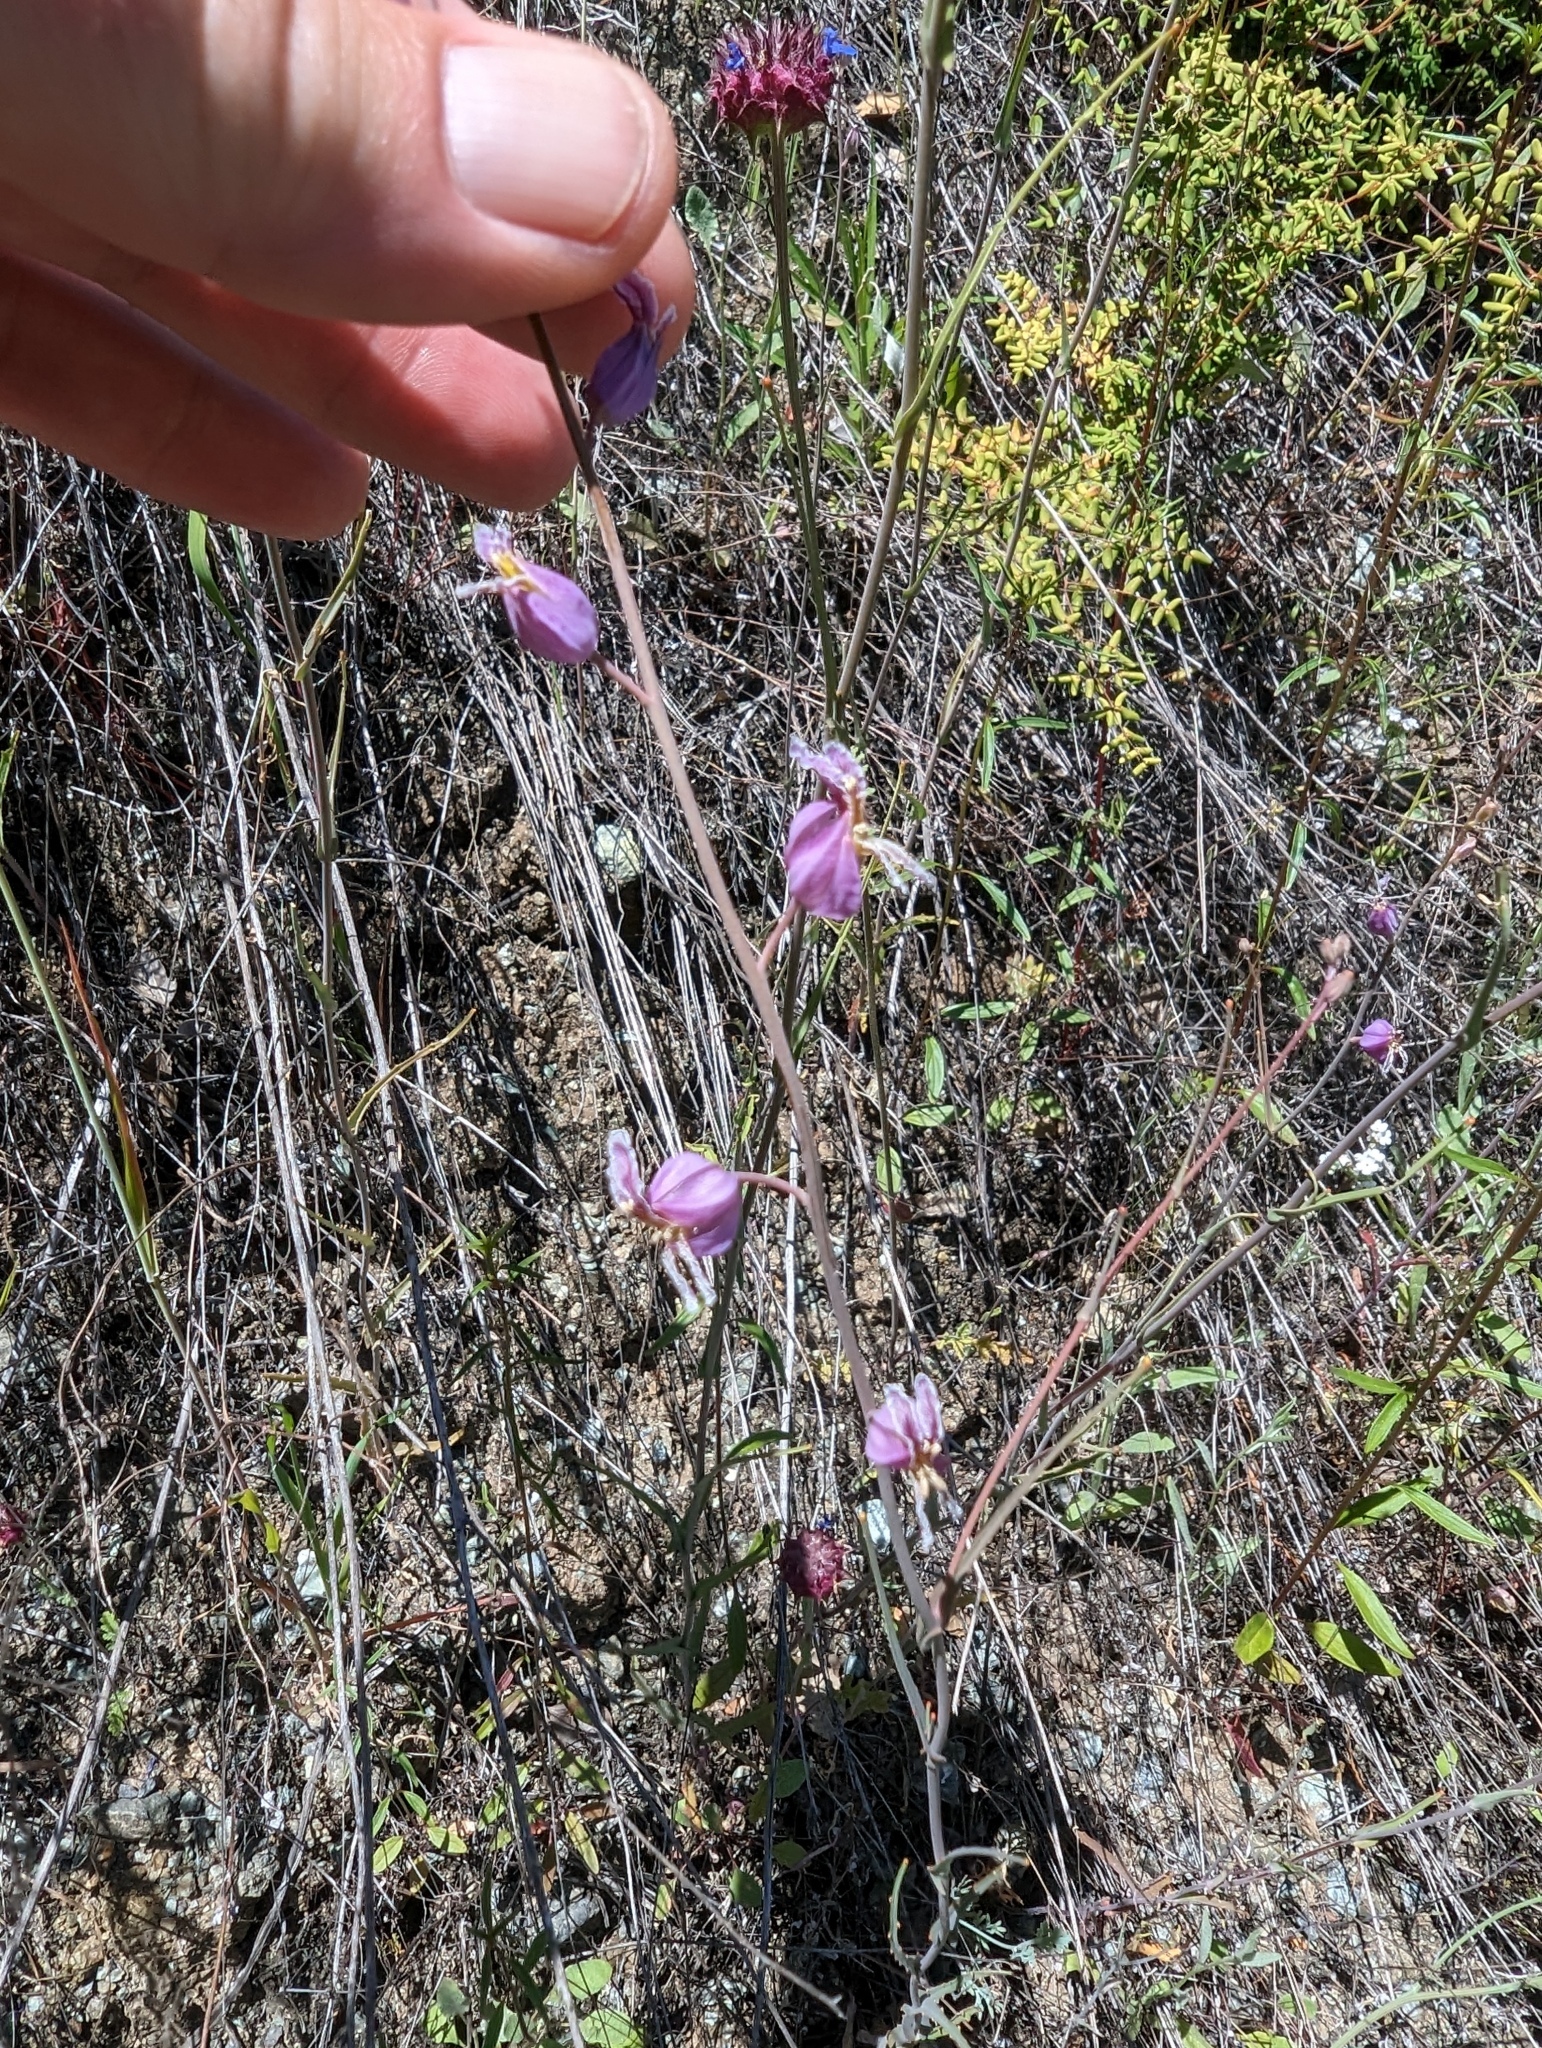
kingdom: Plantae
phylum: Tracheophyta
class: Magnoliopsida
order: Brassicales
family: Brassicaceae
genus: Streptanthus
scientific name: Streptanthus glandulosus
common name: Jewel-flower
